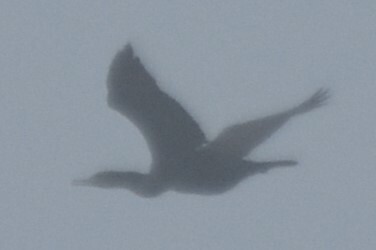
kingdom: Animalia
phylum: Chordata
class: Aves
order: Suliformes
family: Phalacrocoracidae
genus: Phalacrocorax
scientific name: Phalacrocorax carbo
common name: Great cormorant
